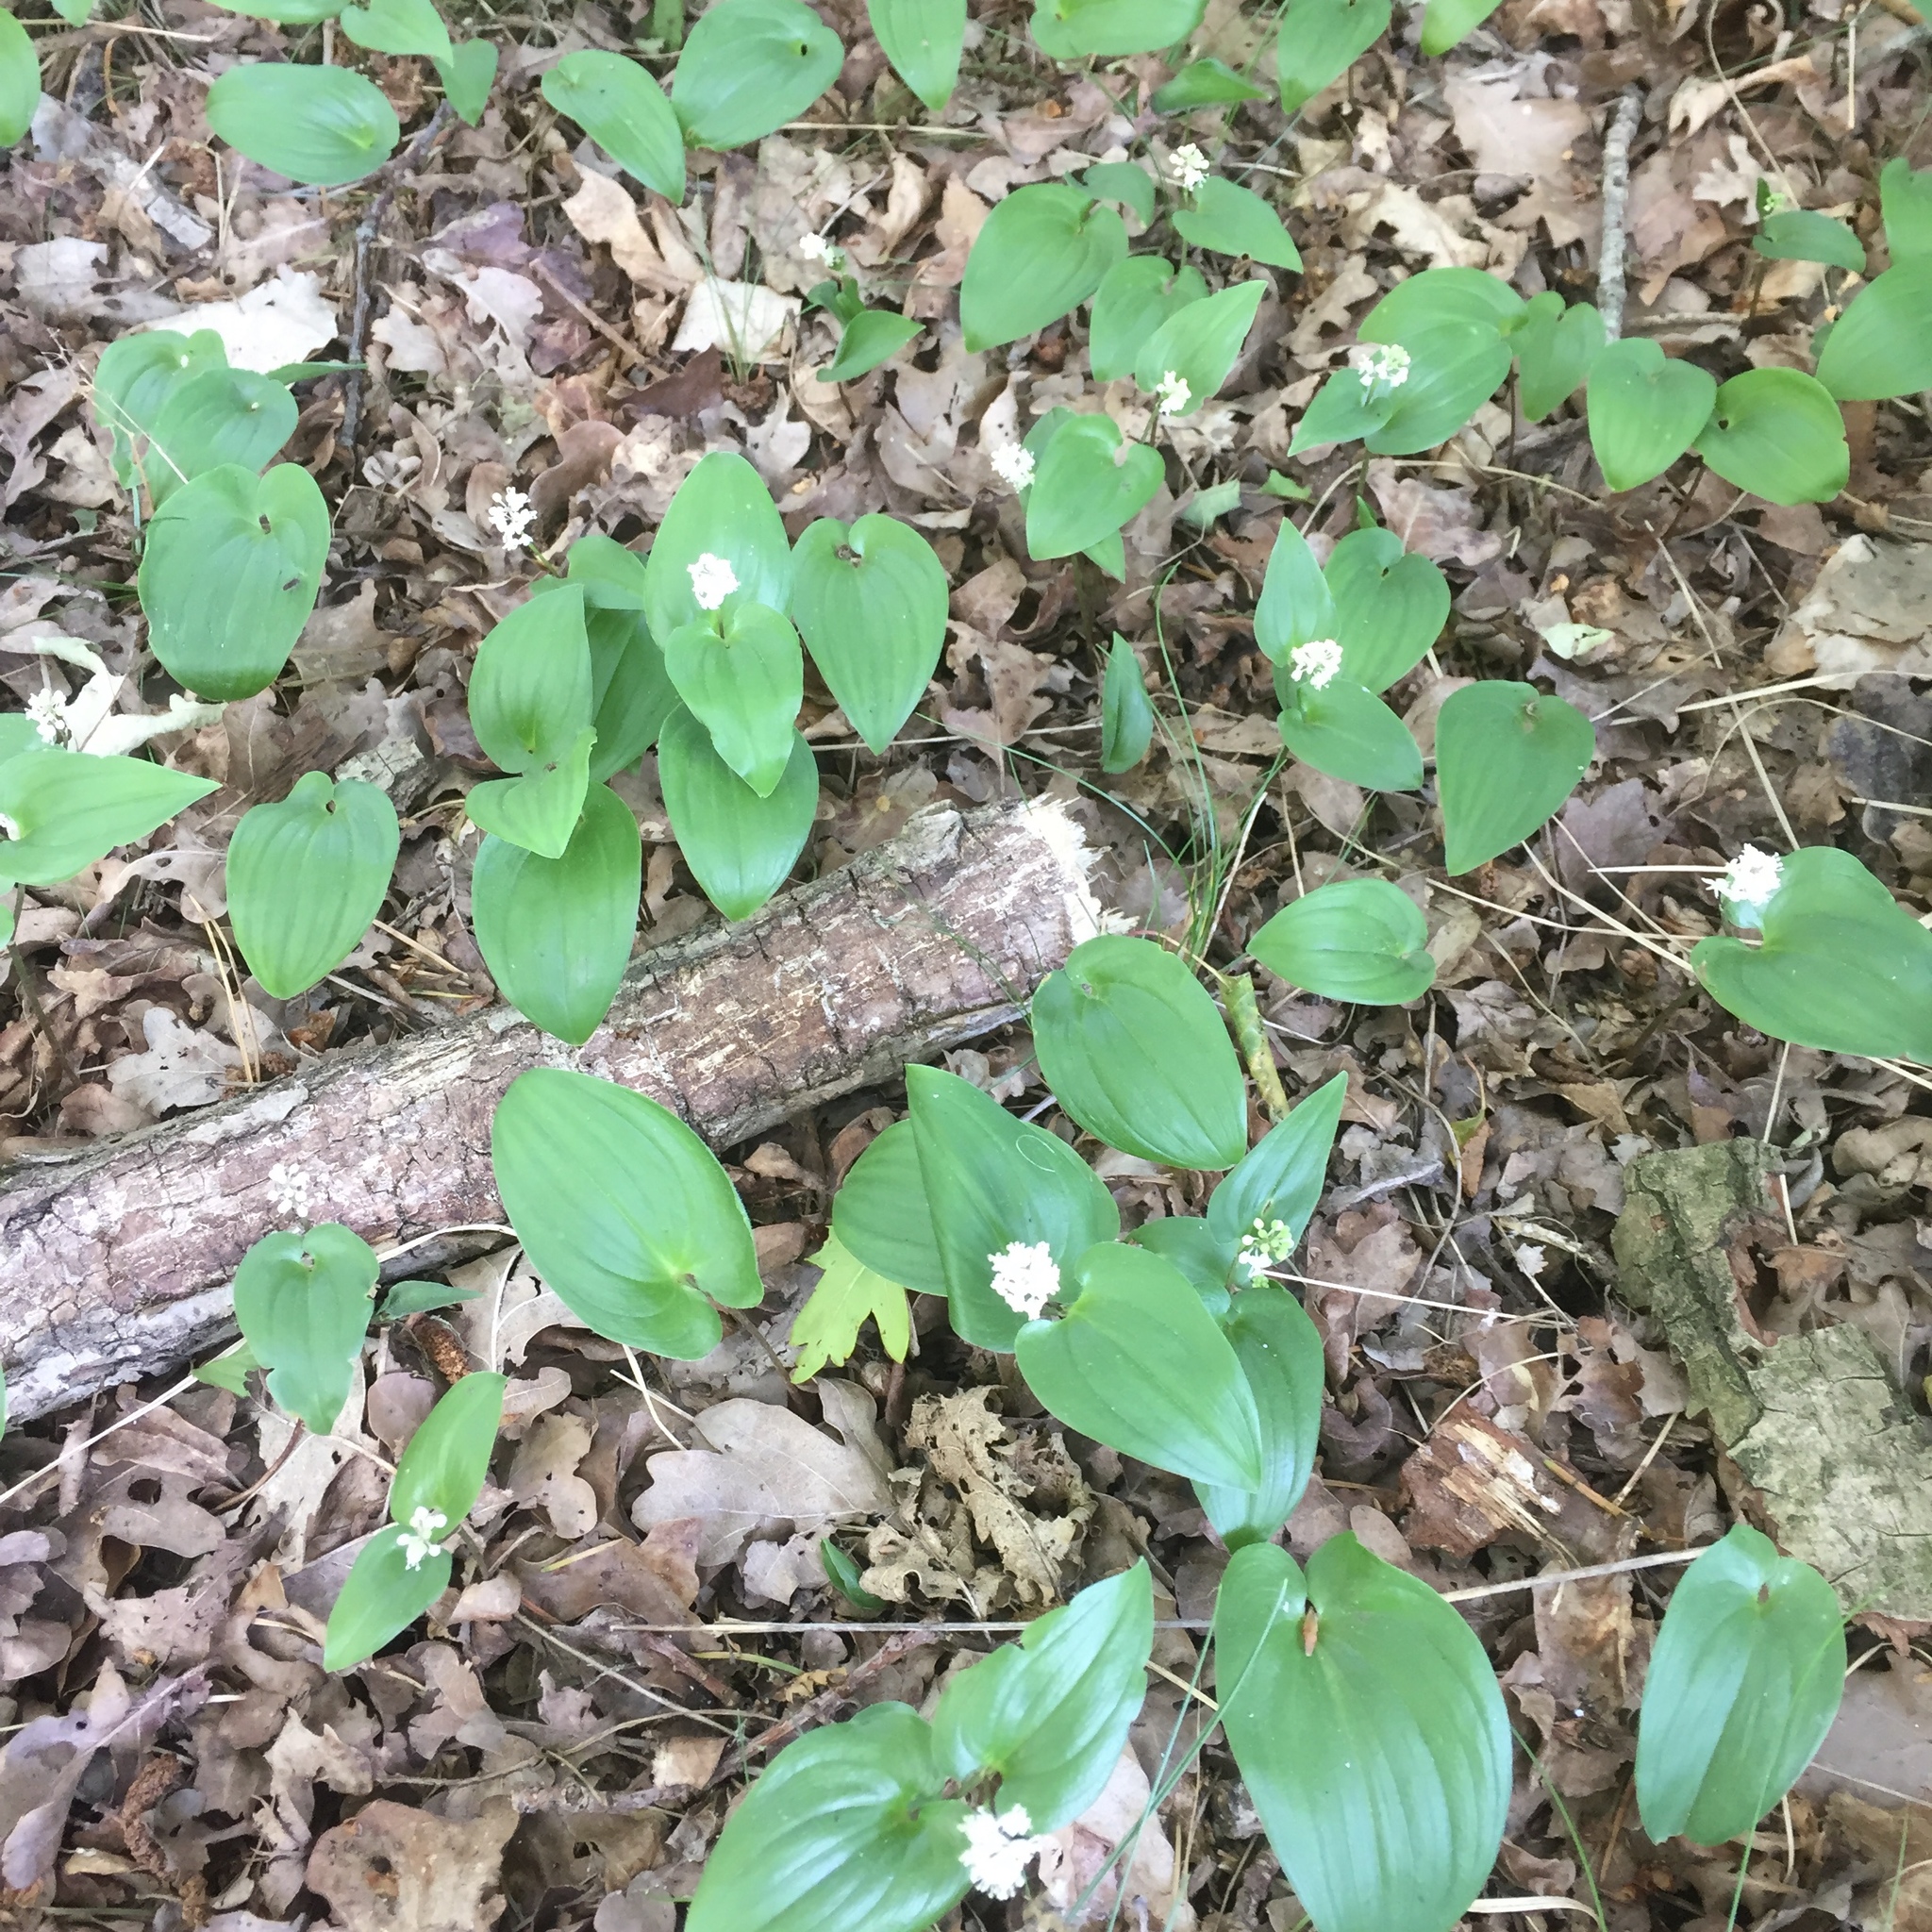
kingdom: Plantae
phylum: Tracheophyta
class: Liliopsida
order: Asparagales
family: Asparagaceae
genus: Maianthemum
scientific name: Maianthemum bifolium
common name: May lily
